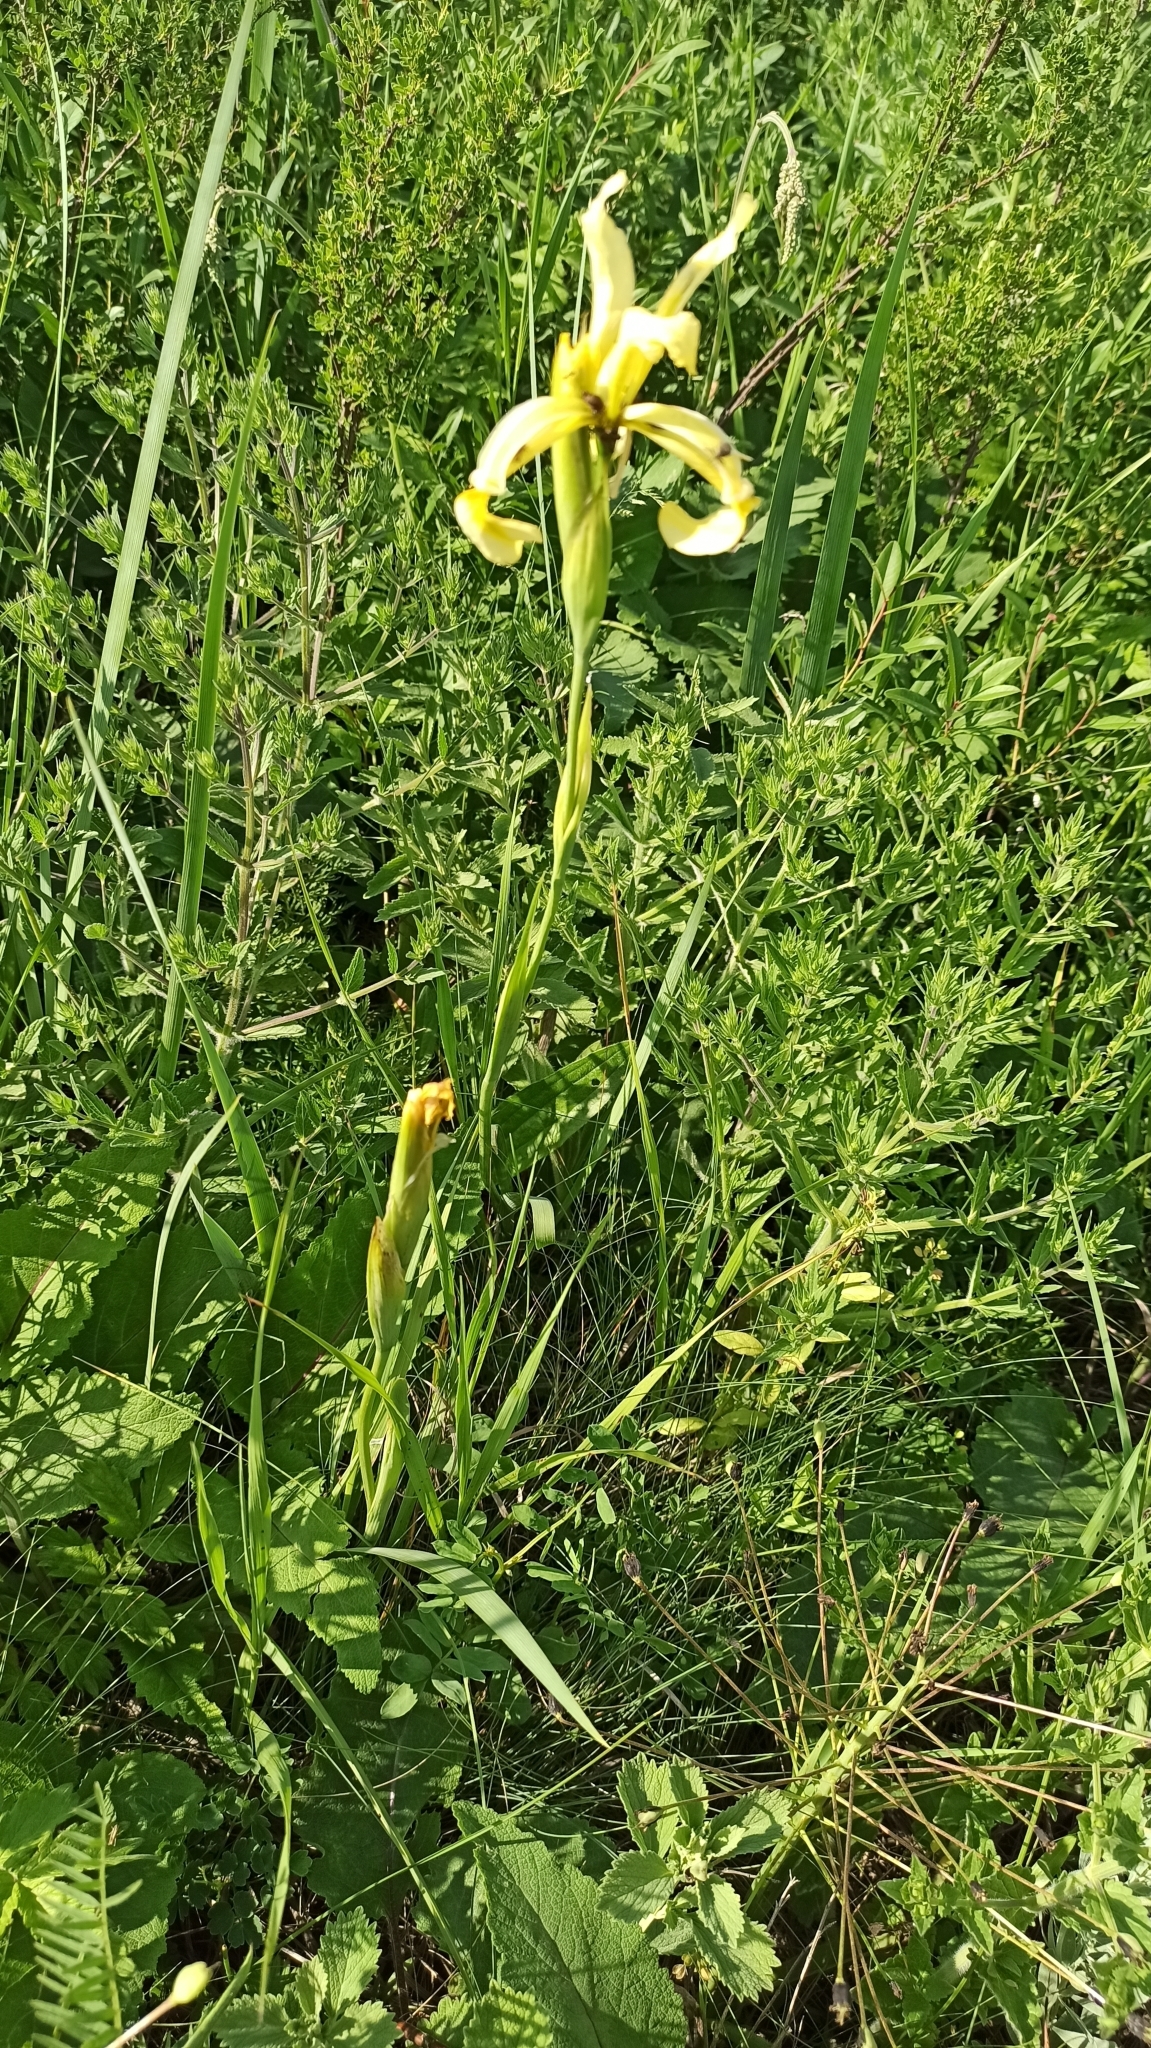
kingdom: Plantae
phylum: Tracheophyta
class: Liliopsida
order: Asparagales
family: Iridaceae
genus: Iris
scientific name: Iris halophila
